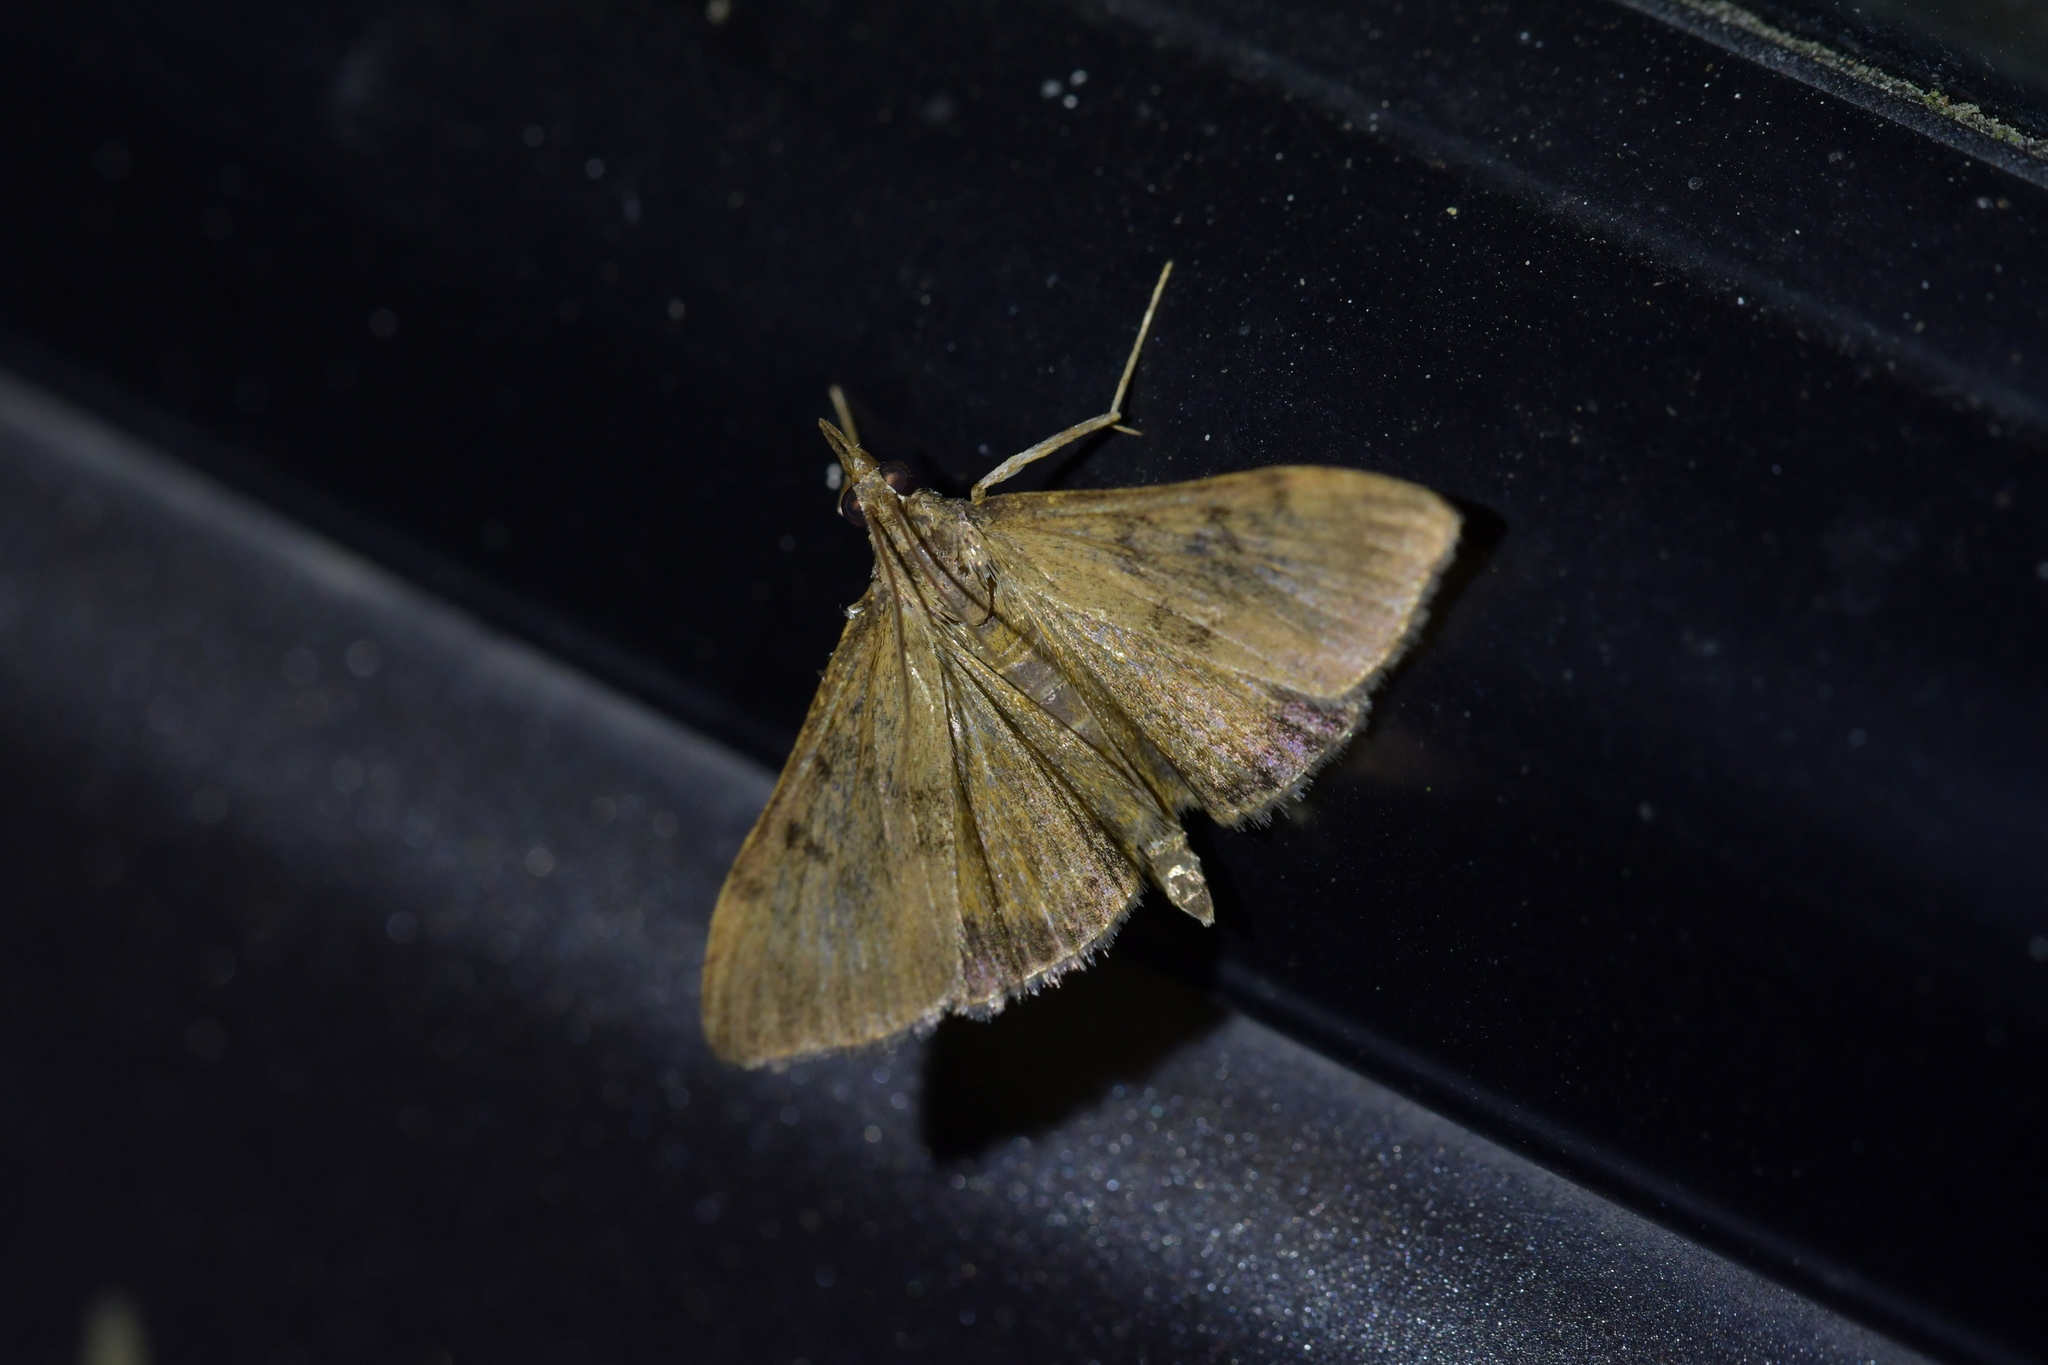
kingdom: Animalia
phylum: Arthropoda
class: Insecta
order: Lepidoptera
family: Crambidae
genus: Uresiphita
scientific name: Uresiphita
